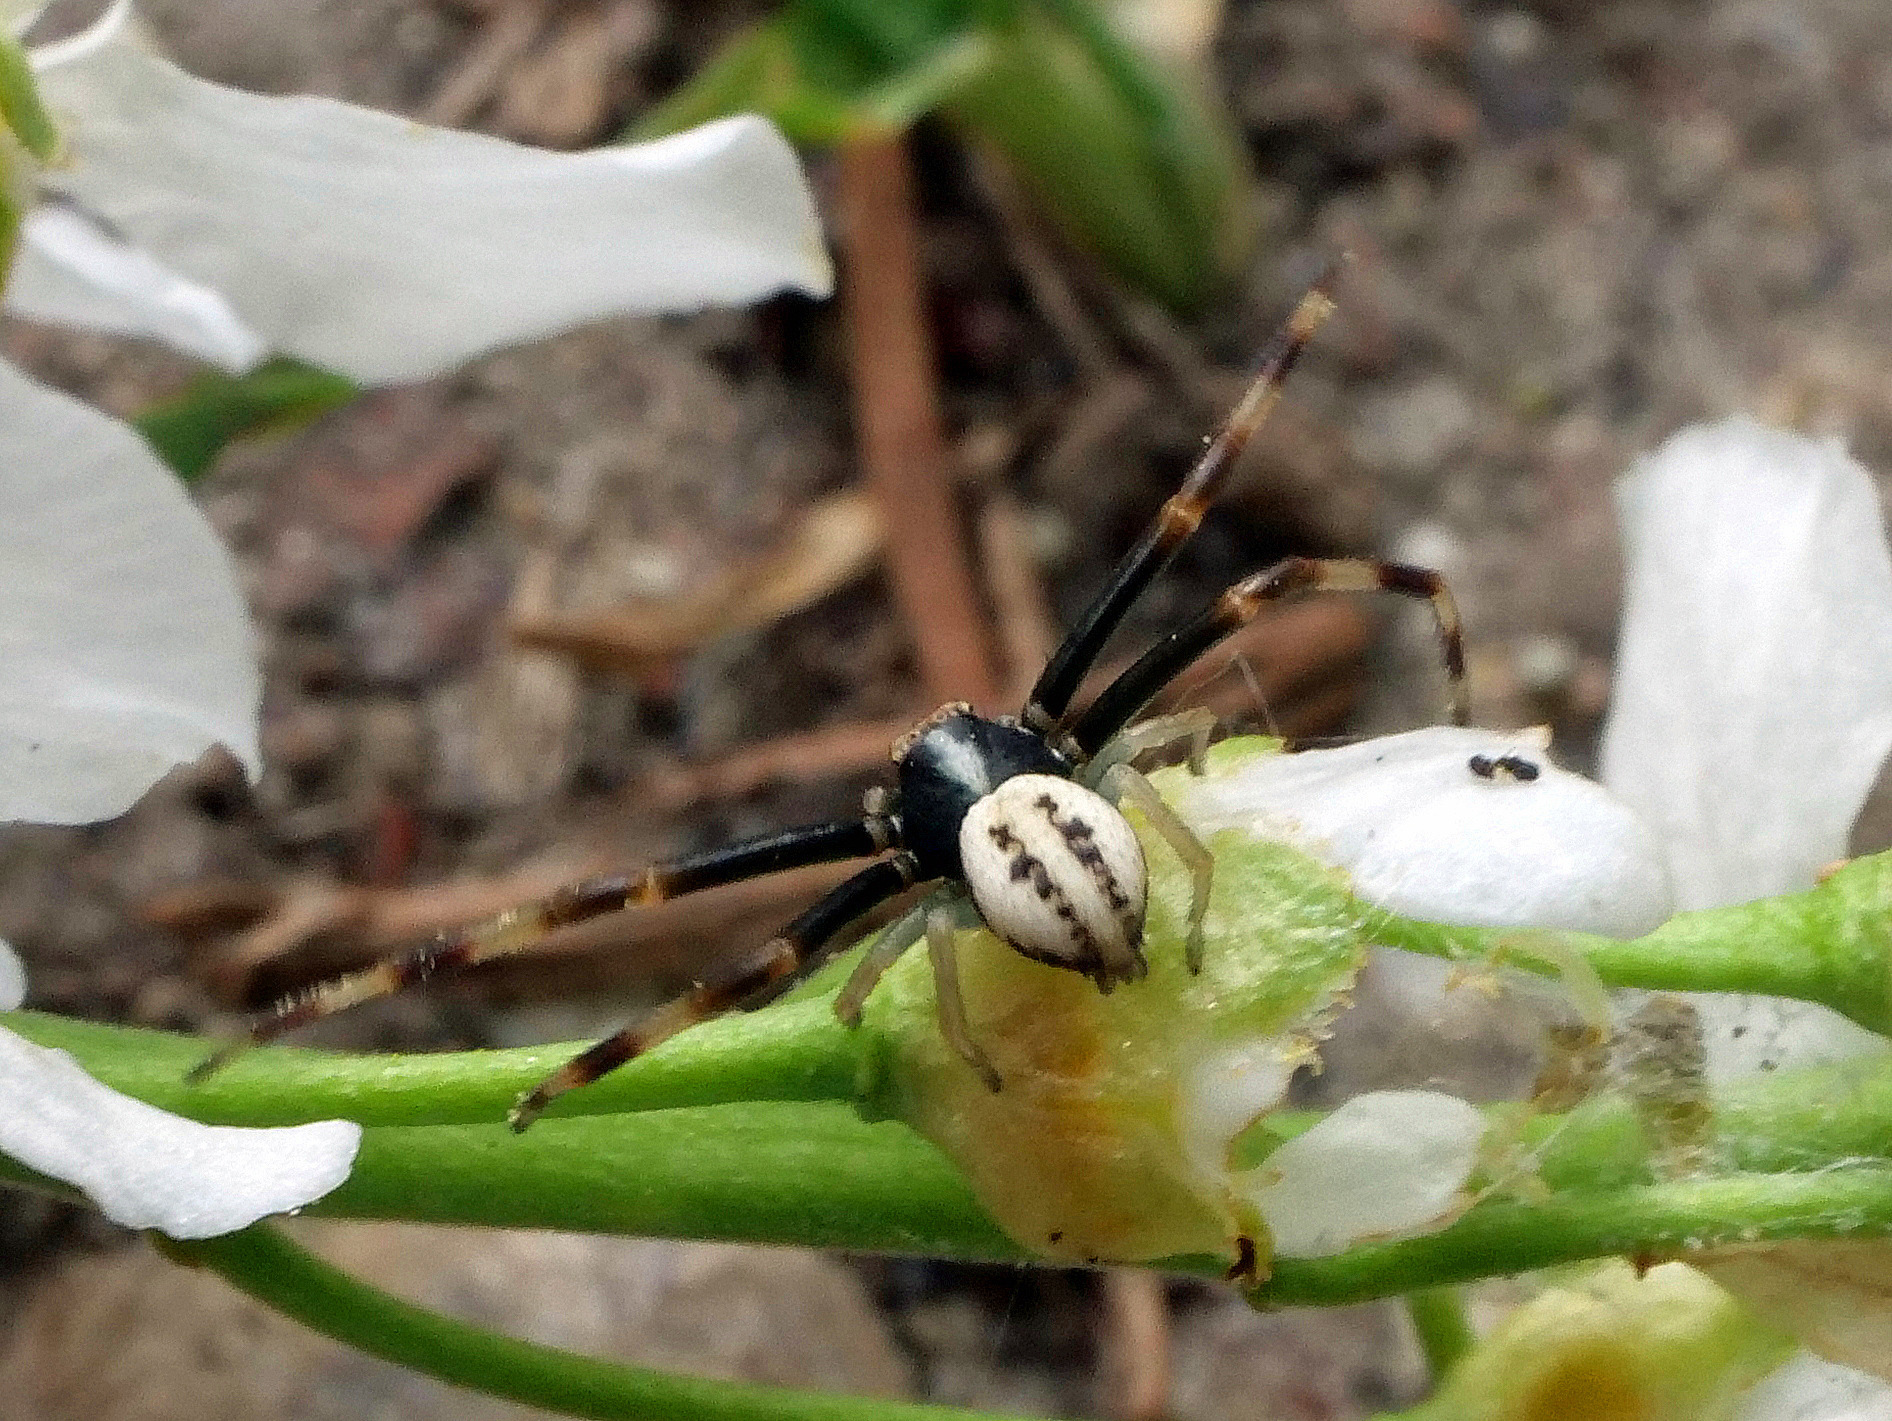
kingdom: Animalia
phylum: Arthropoda
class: Arachnida
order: Araneae
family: Thomisidae
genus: Misumena
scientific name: Misumena vatia
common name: Goldenrod crab spider
